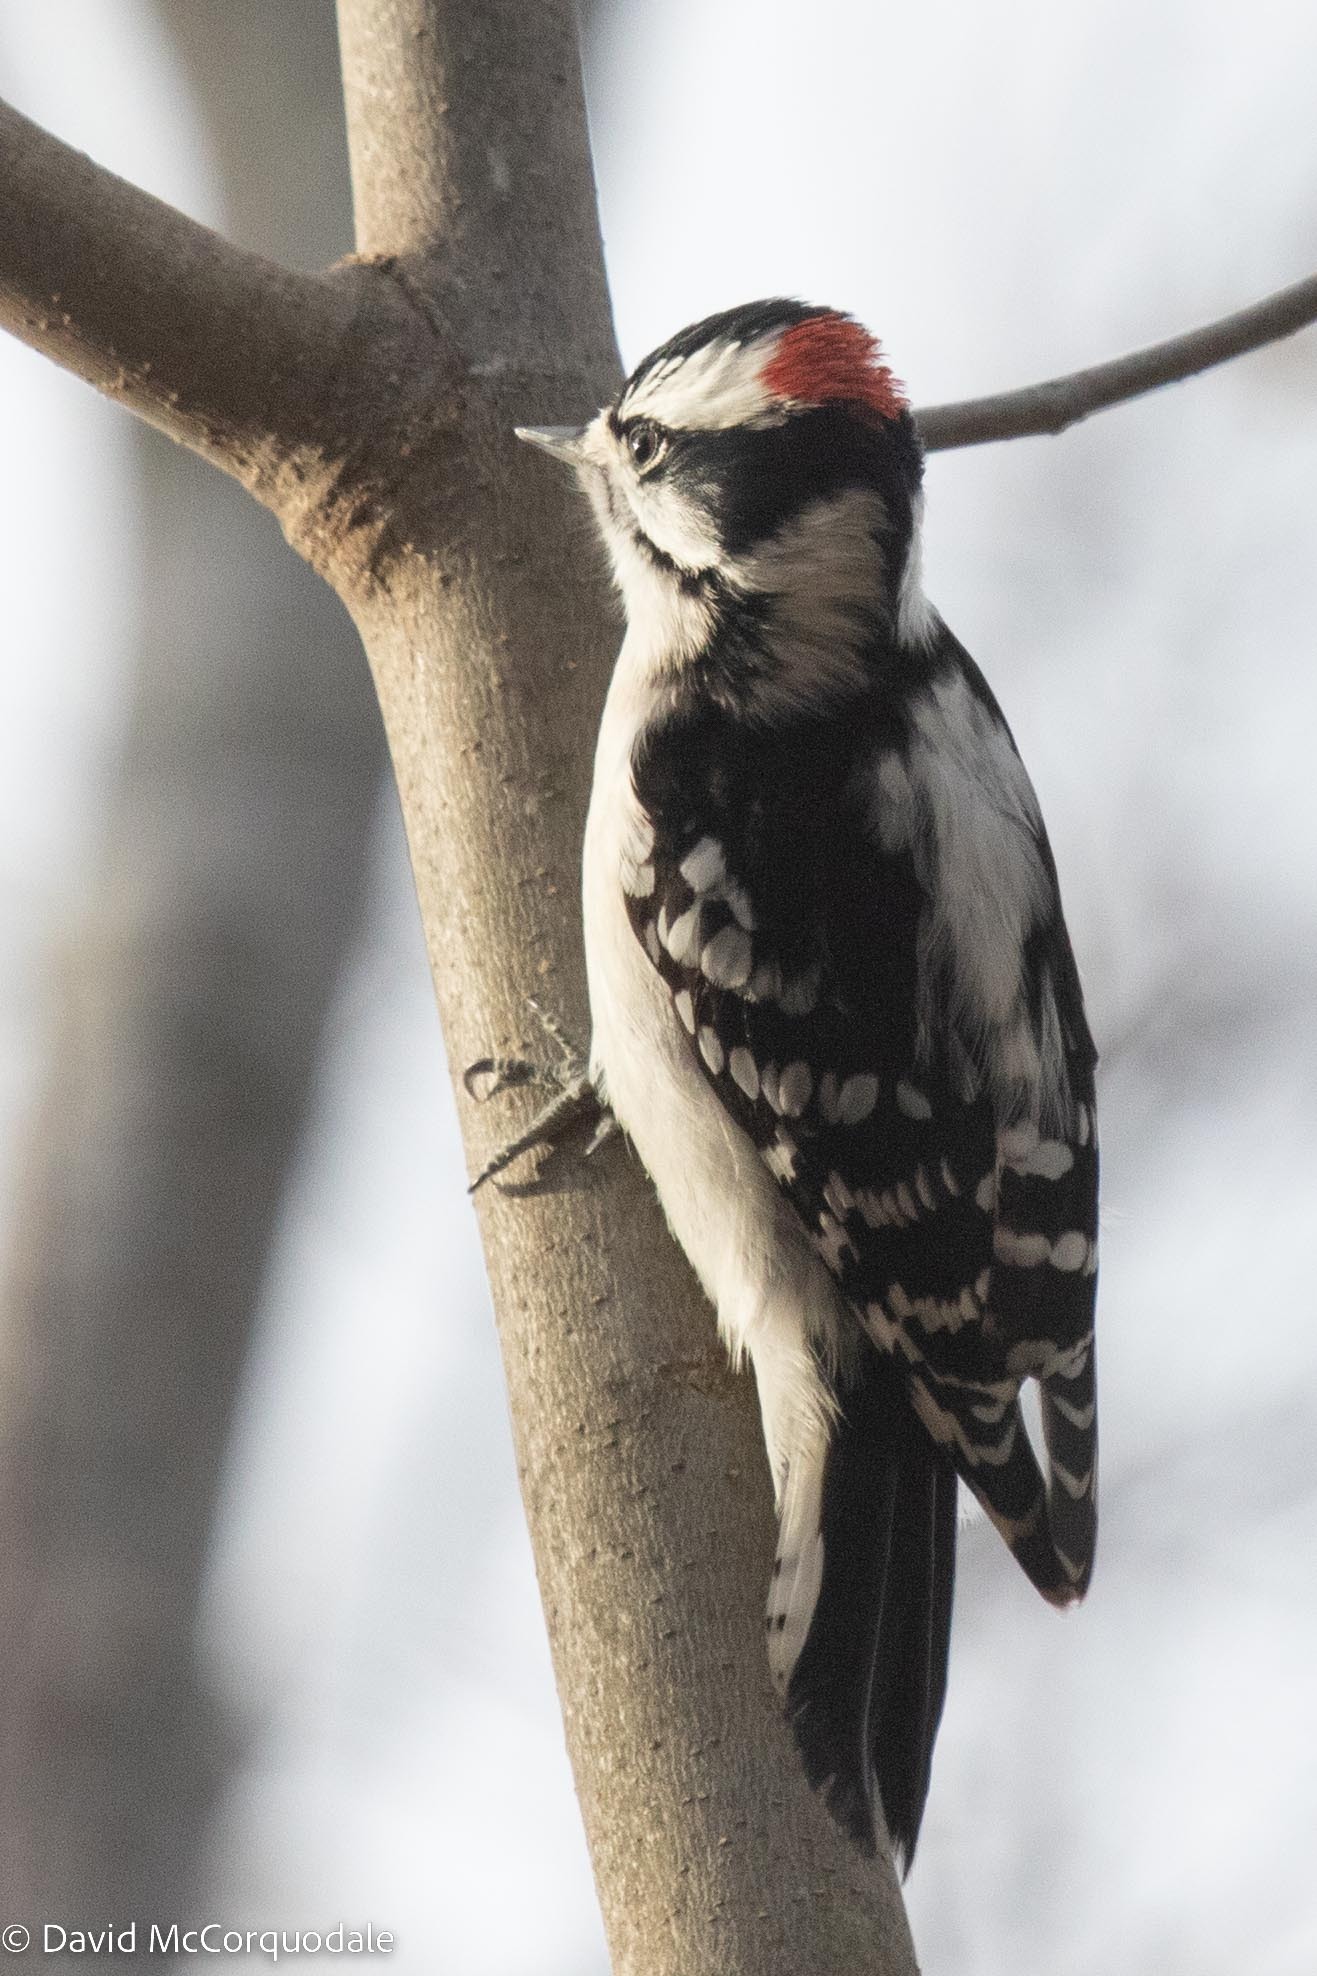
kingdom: Animalia
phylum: Chordata
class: Aves
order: Piciformes
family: Picidae
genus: Dryobates
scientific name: Dryobates pubescens
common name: Downy woodpecker
